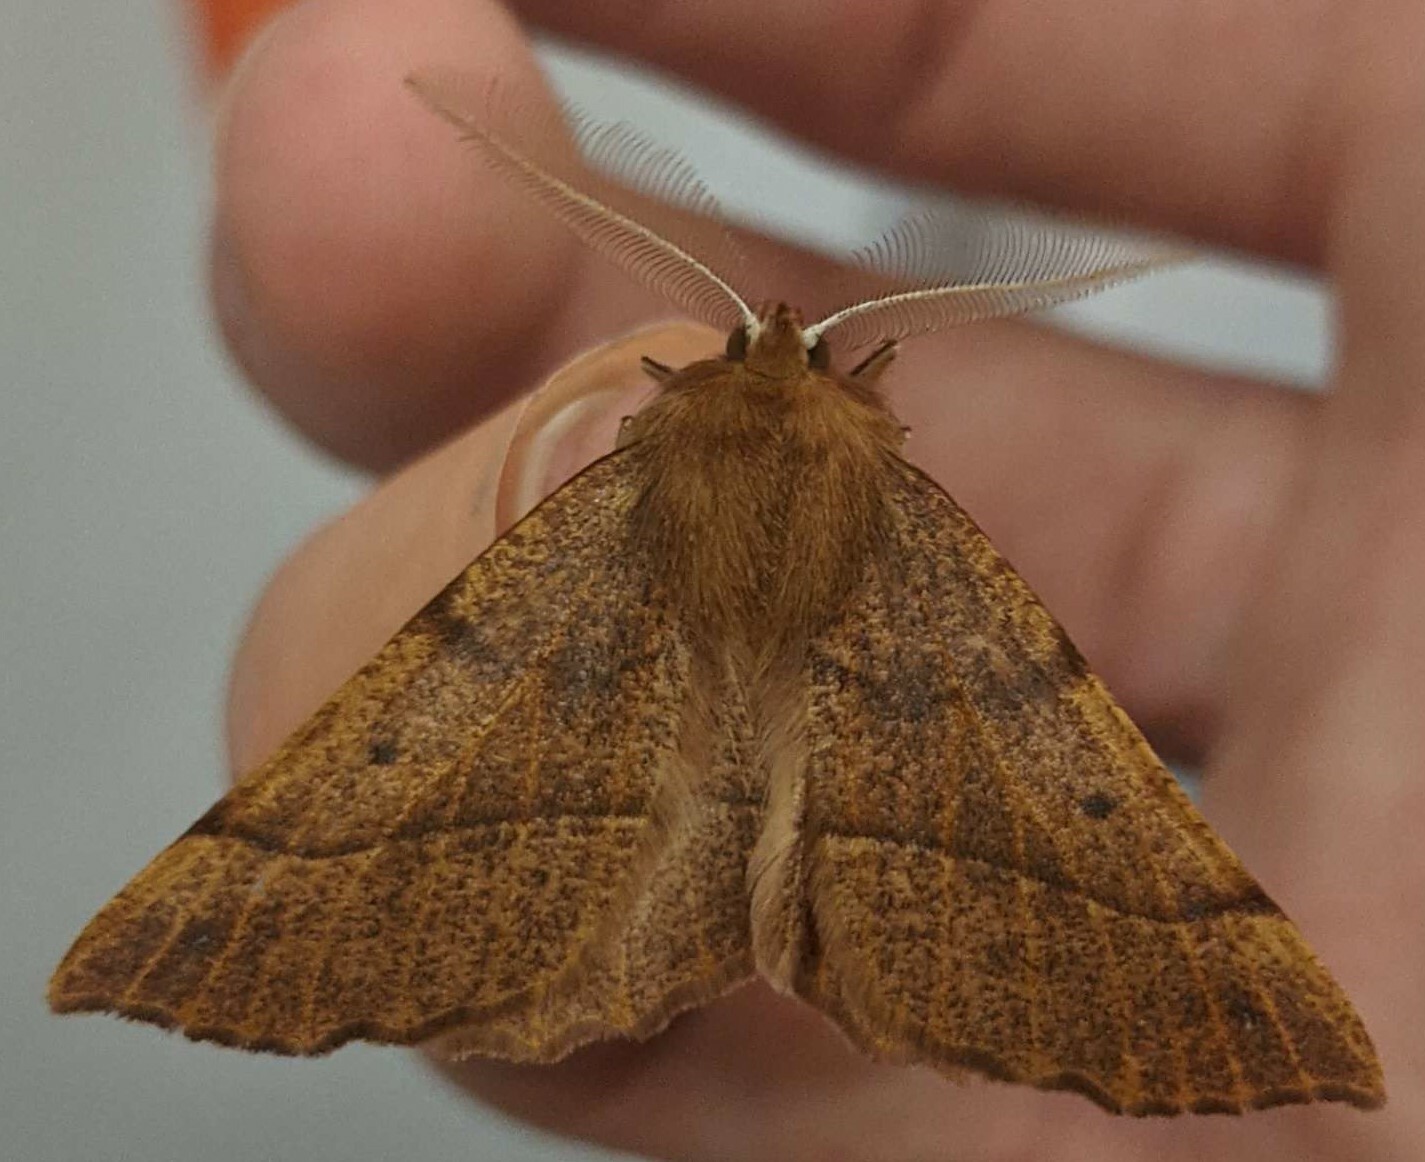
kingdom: Animalia
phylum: Arthropoda
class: Insecta
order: Lepidoptera
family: Geometridae
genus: Colotois
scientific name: Colotois pennaria
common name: Feathered thorn
